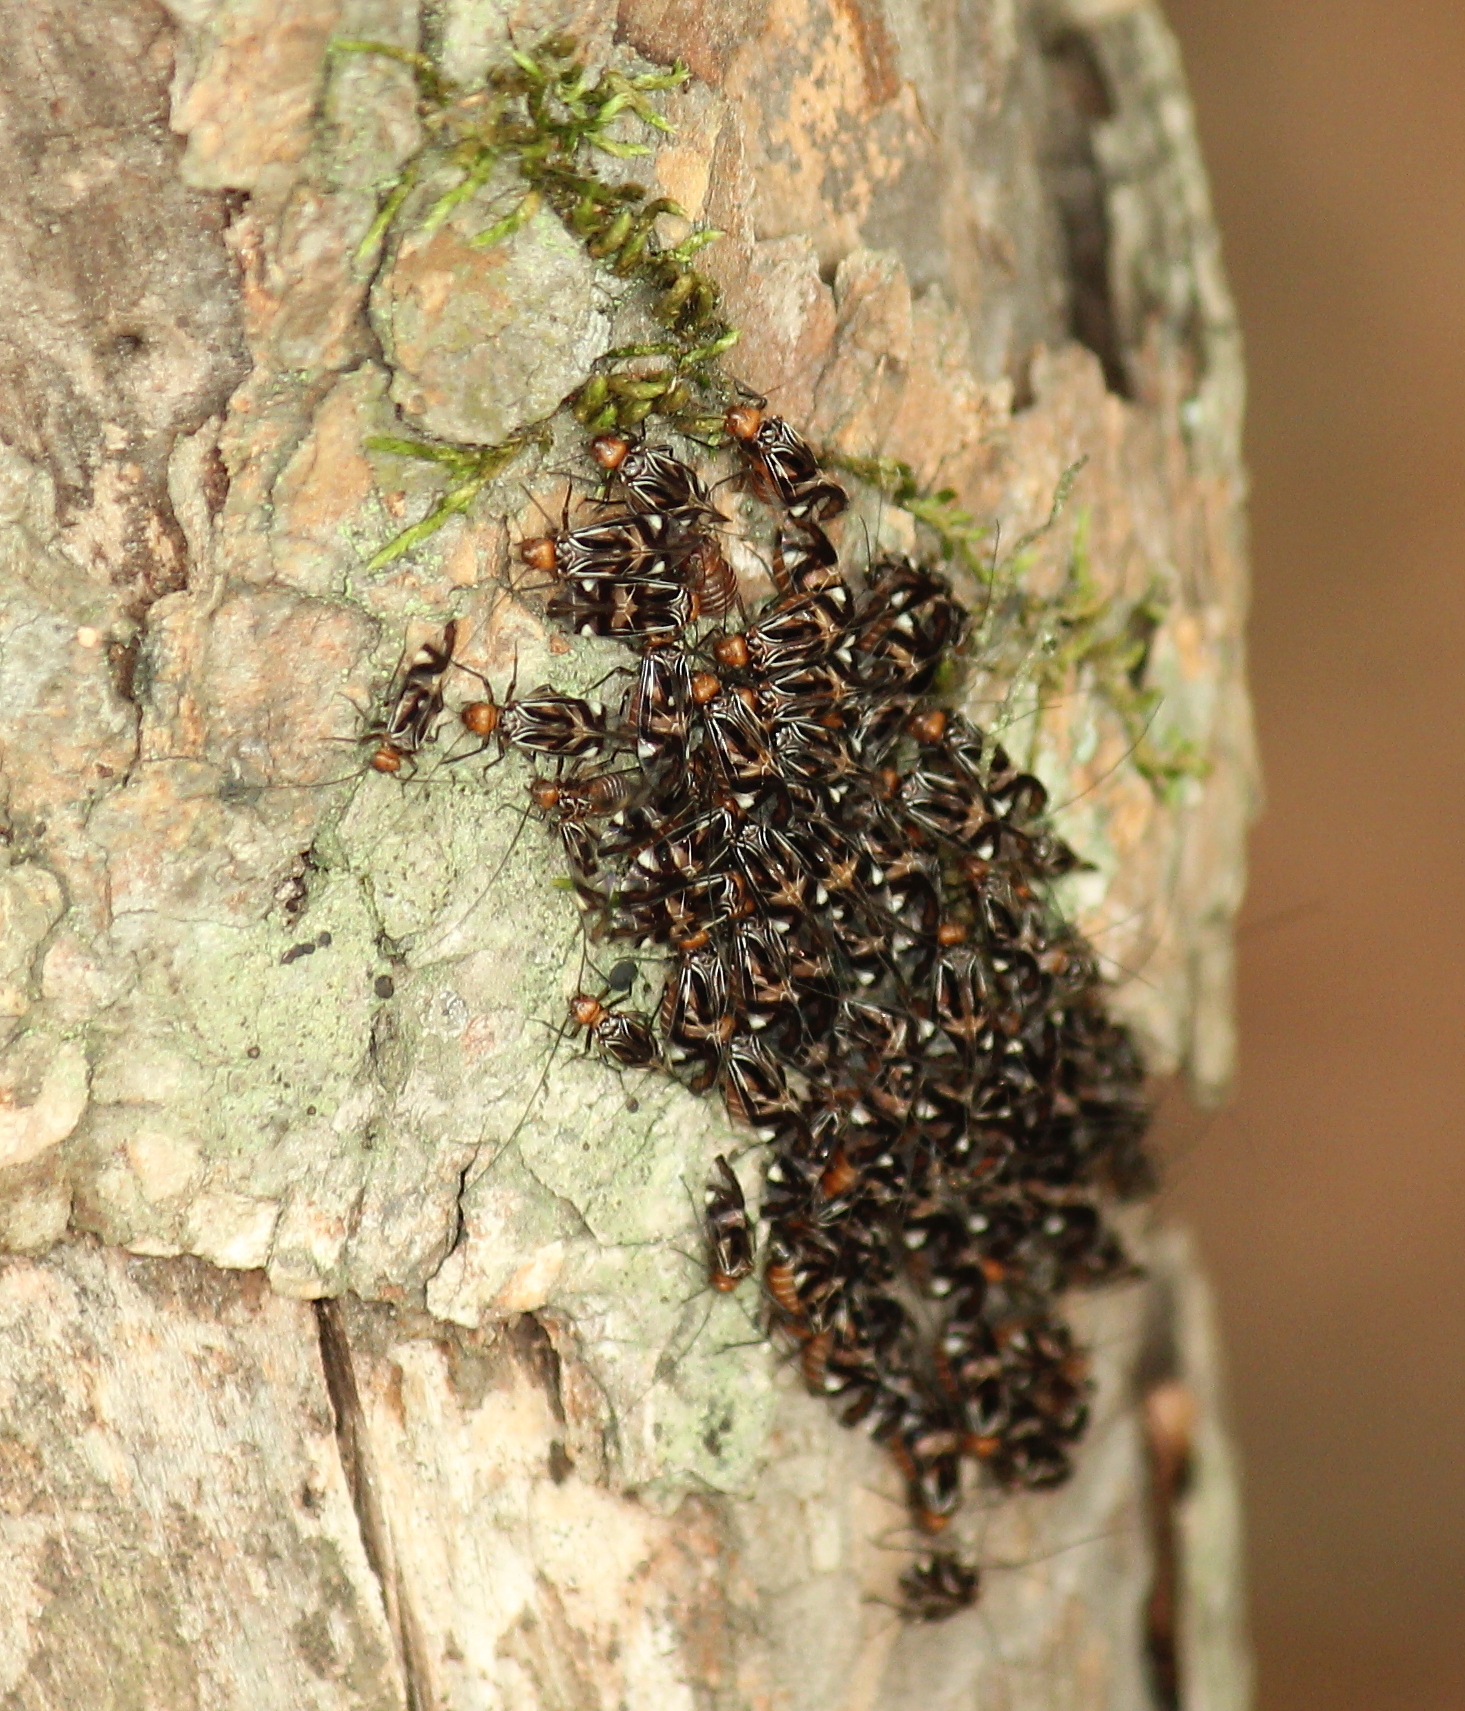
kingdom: Animalia
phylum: Arthropoda
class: Insecta
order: Psocodea
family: Psocidae
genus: Cerastipsocus
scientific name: Cerastipsocus trifasciatus
